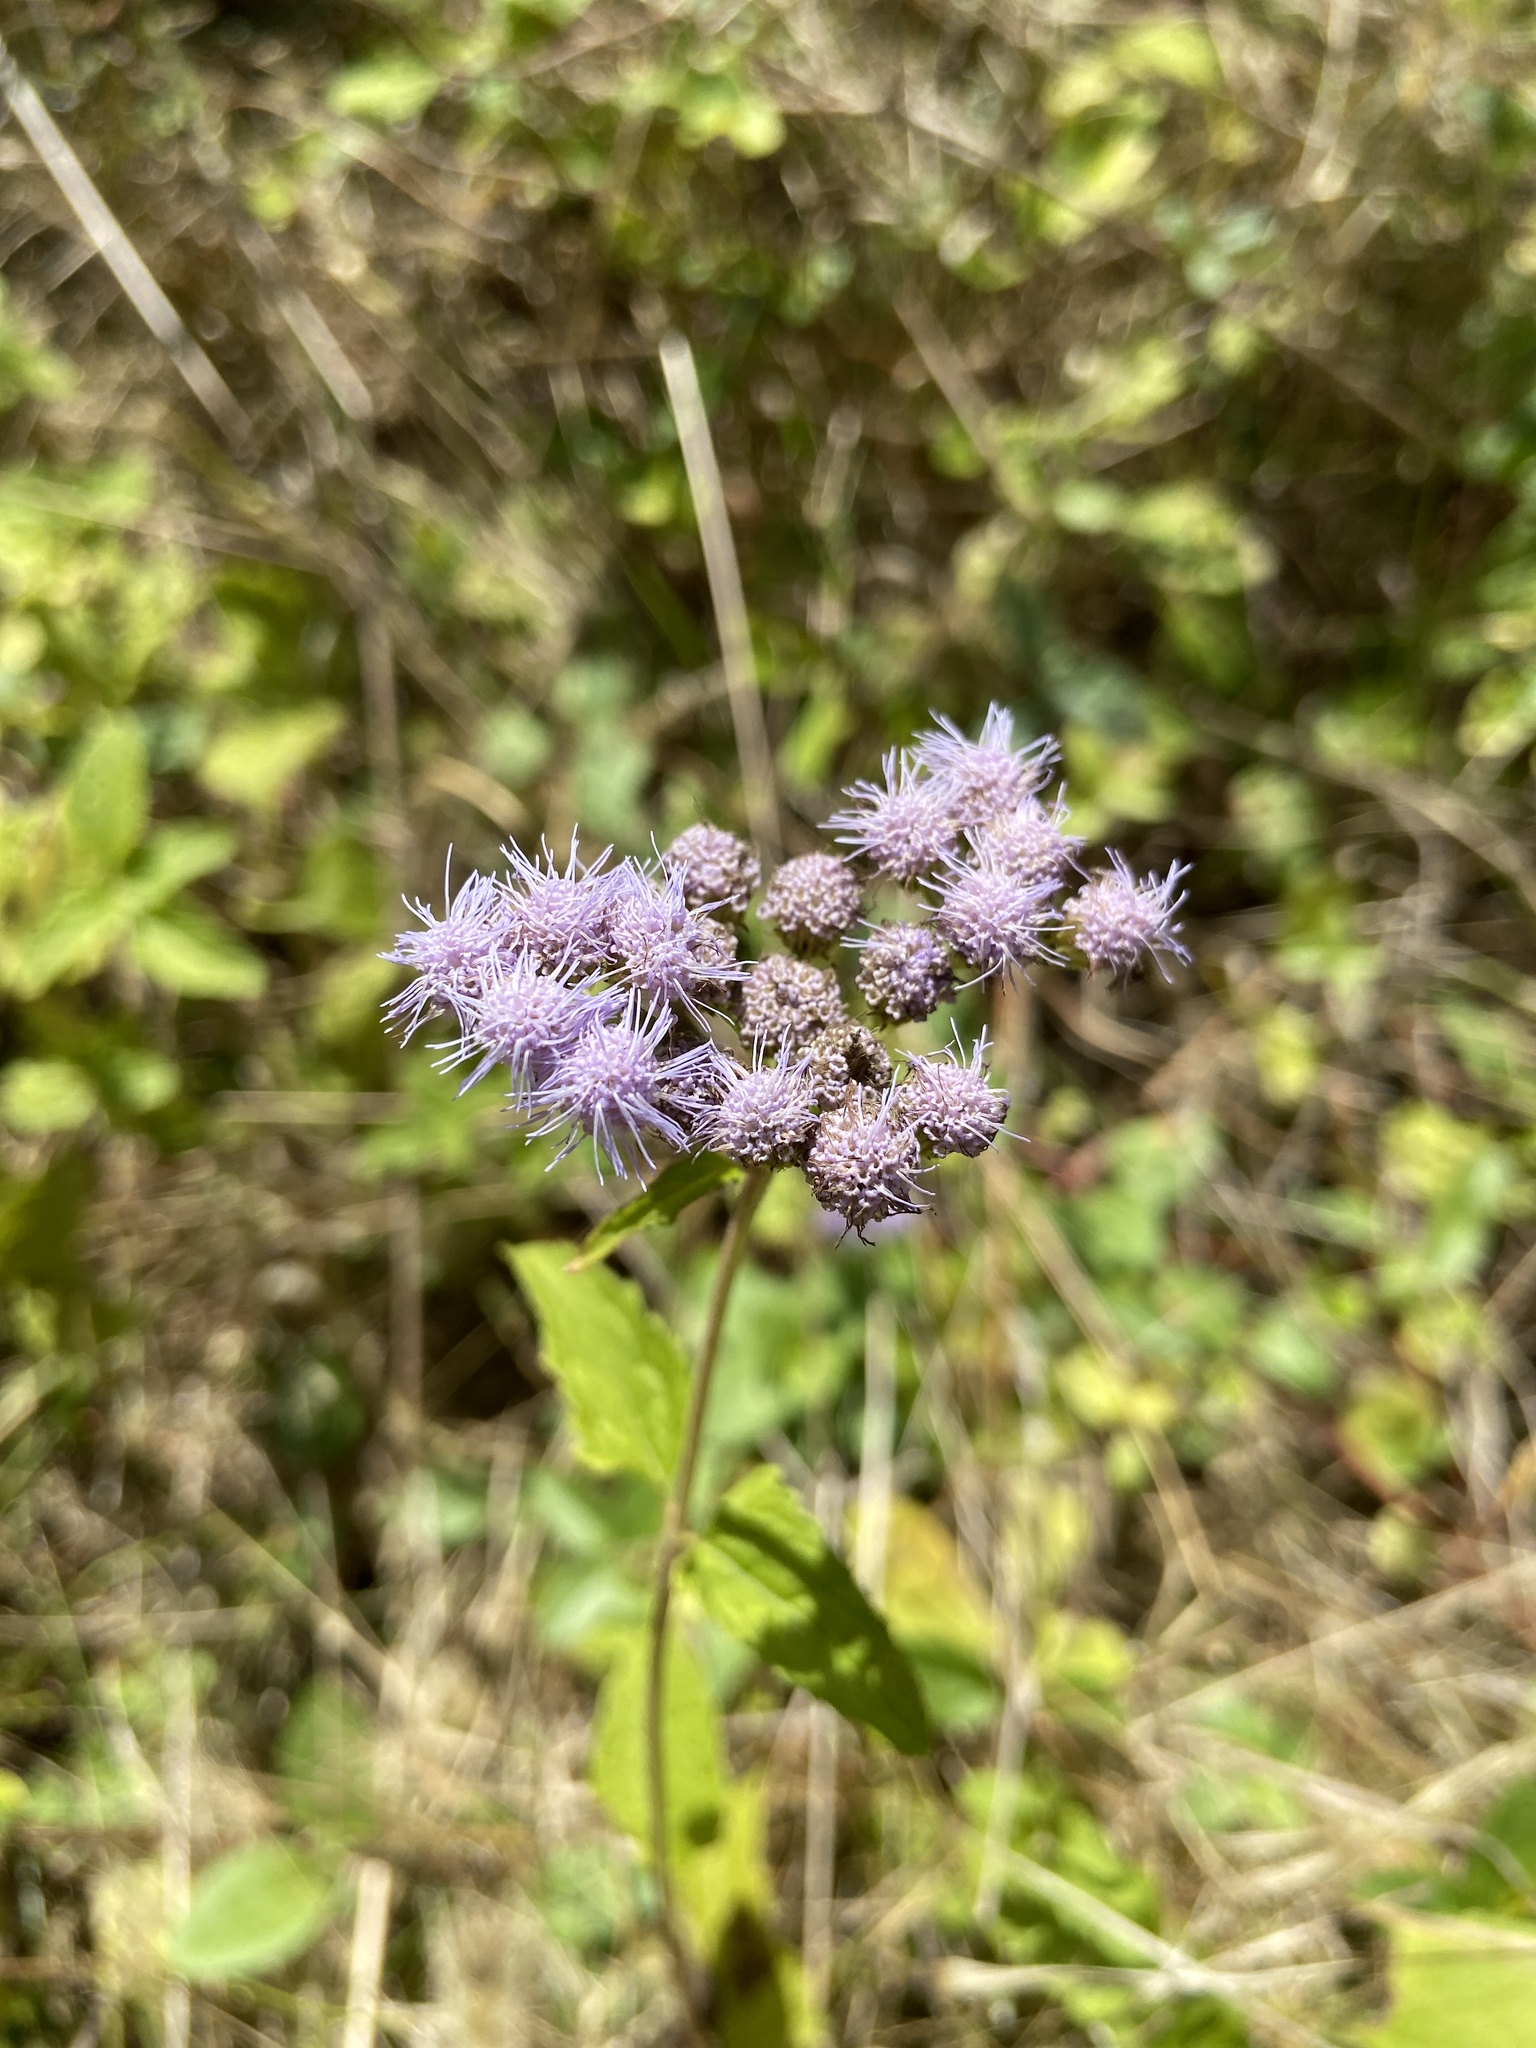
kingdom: Plantae
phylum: Tracheophyta
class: Magnoliopsida
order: Asterales
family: Asteraceae
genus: Conoclinium
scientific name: Conoclinium coelestinum
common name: Blue mistflower
